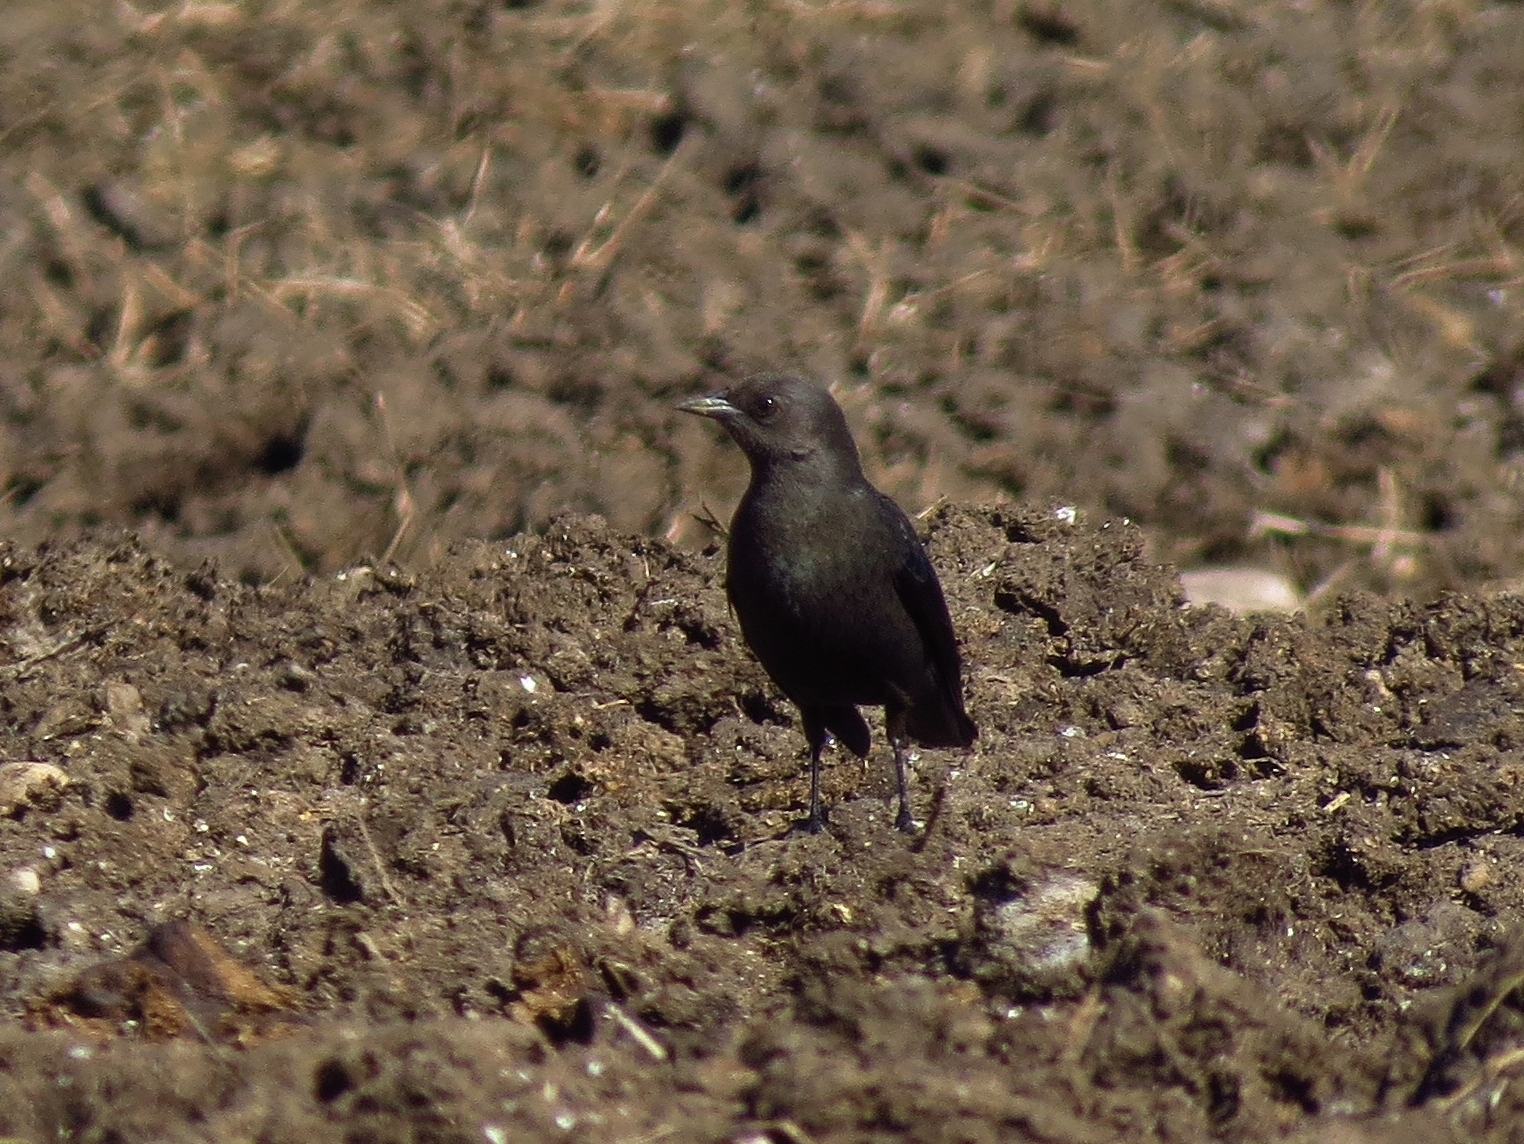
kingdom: Animalia
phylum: Chordata
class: Aves
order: Passeriformes
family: Icteridae
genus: Euphagus
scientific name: Euphagus cyanocephalus
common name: Brewer's blackbird
